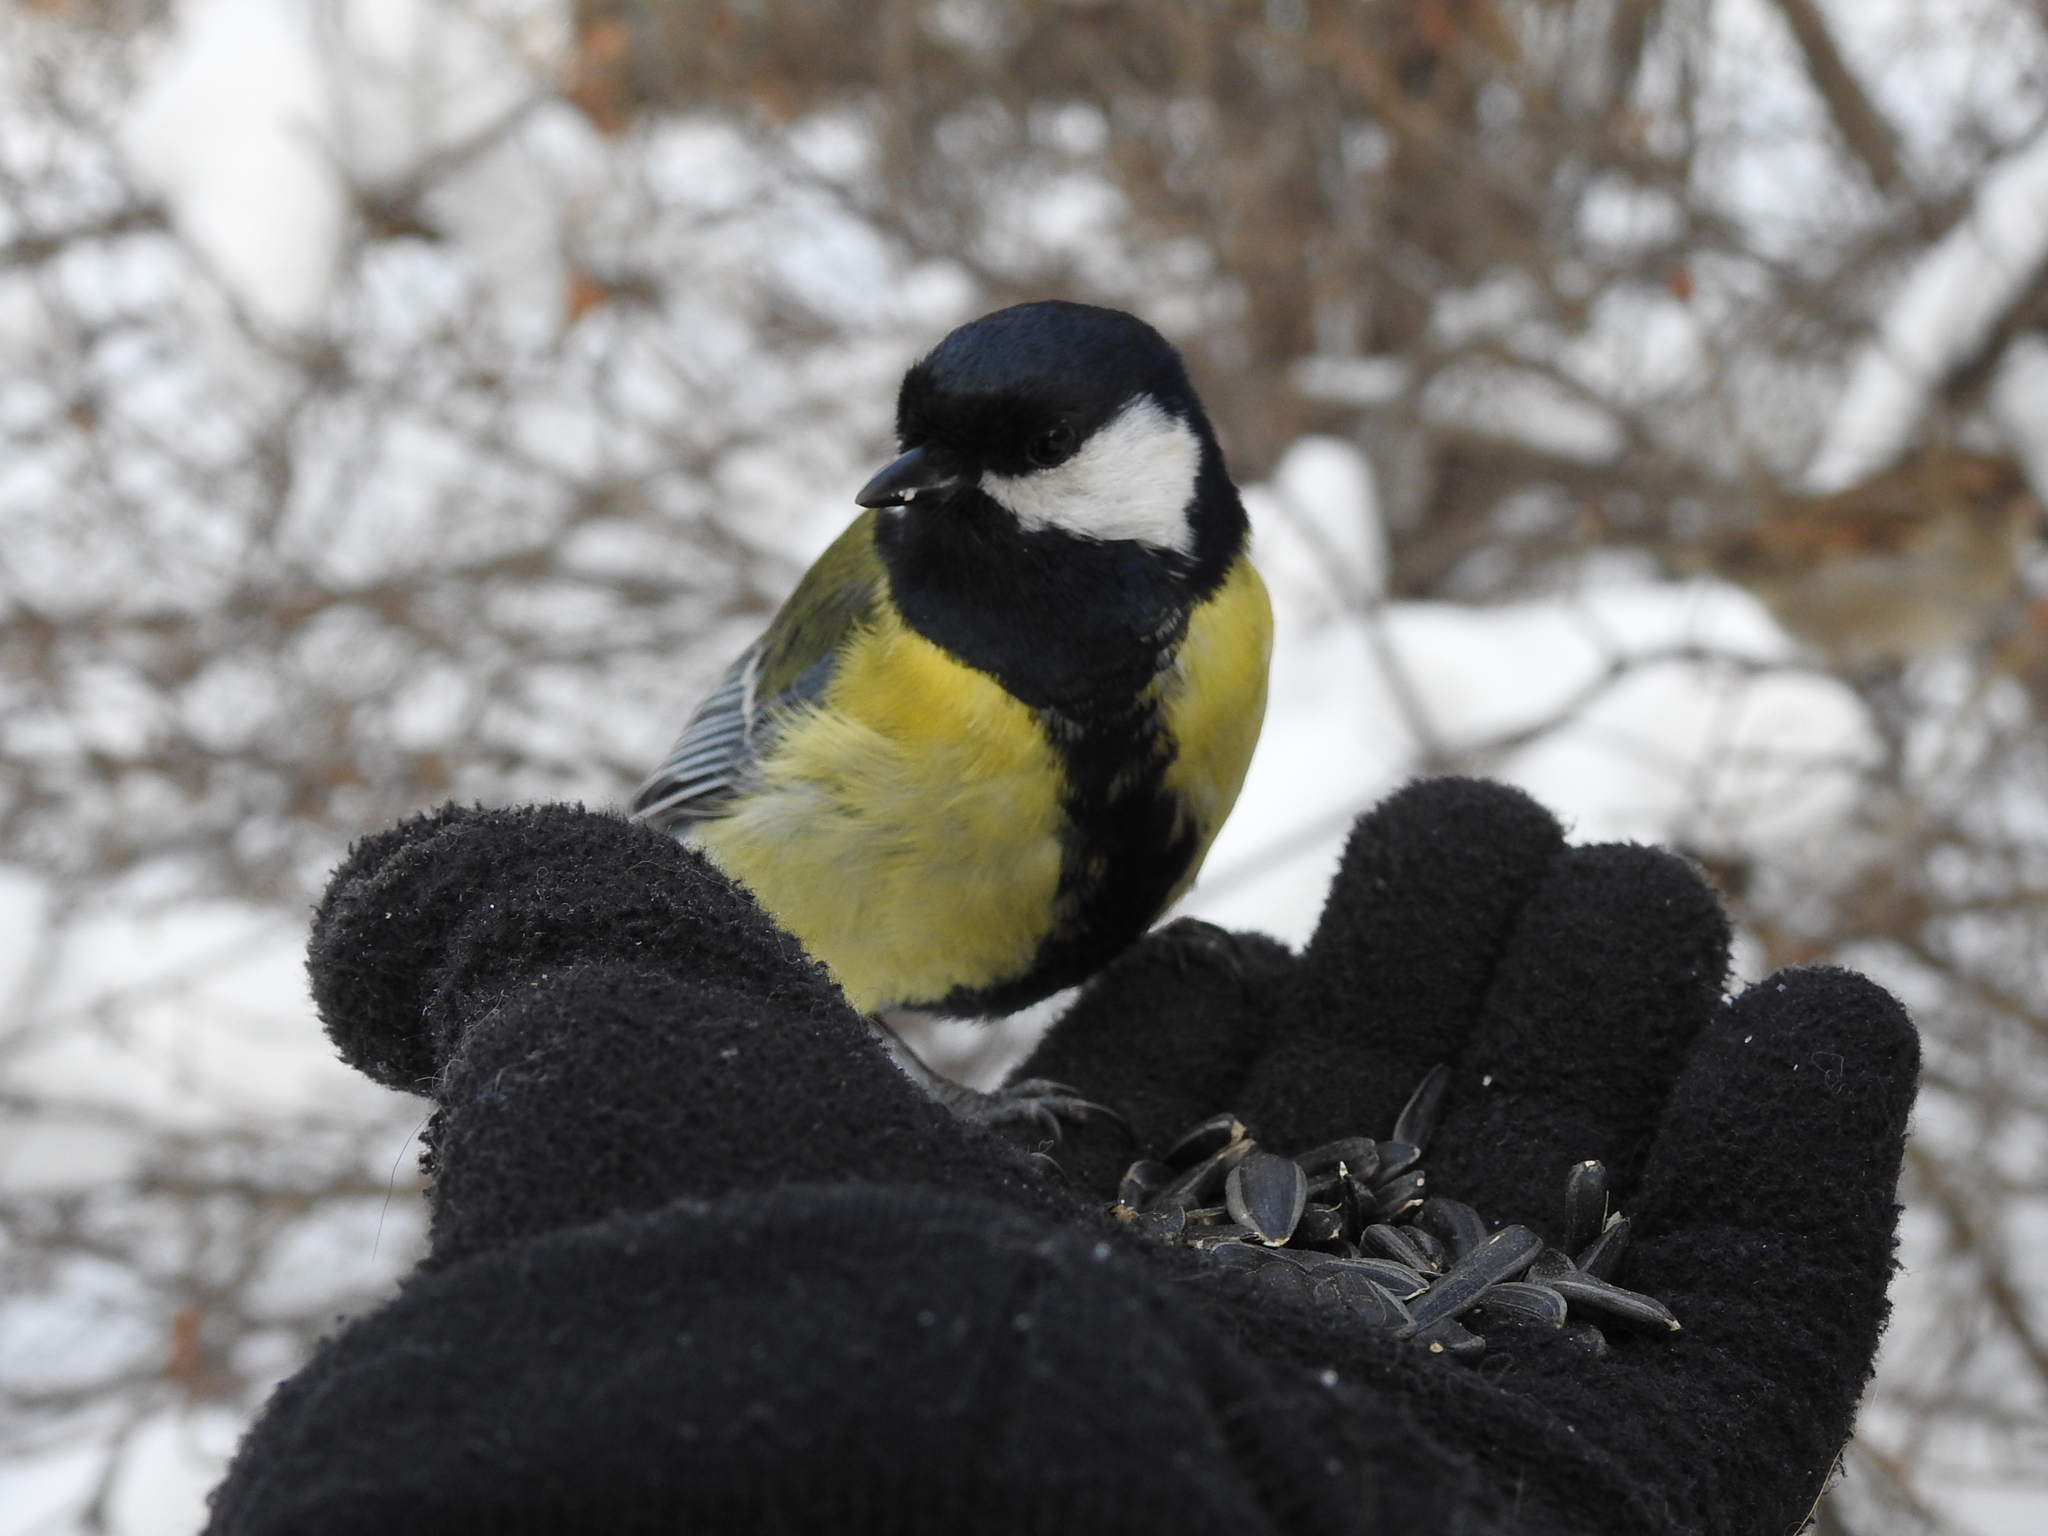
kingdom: Animalia
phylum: Chordata
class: Aves
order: Passeriformes
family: Paridae
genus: Parus
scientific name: Parus major
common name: Great tit
